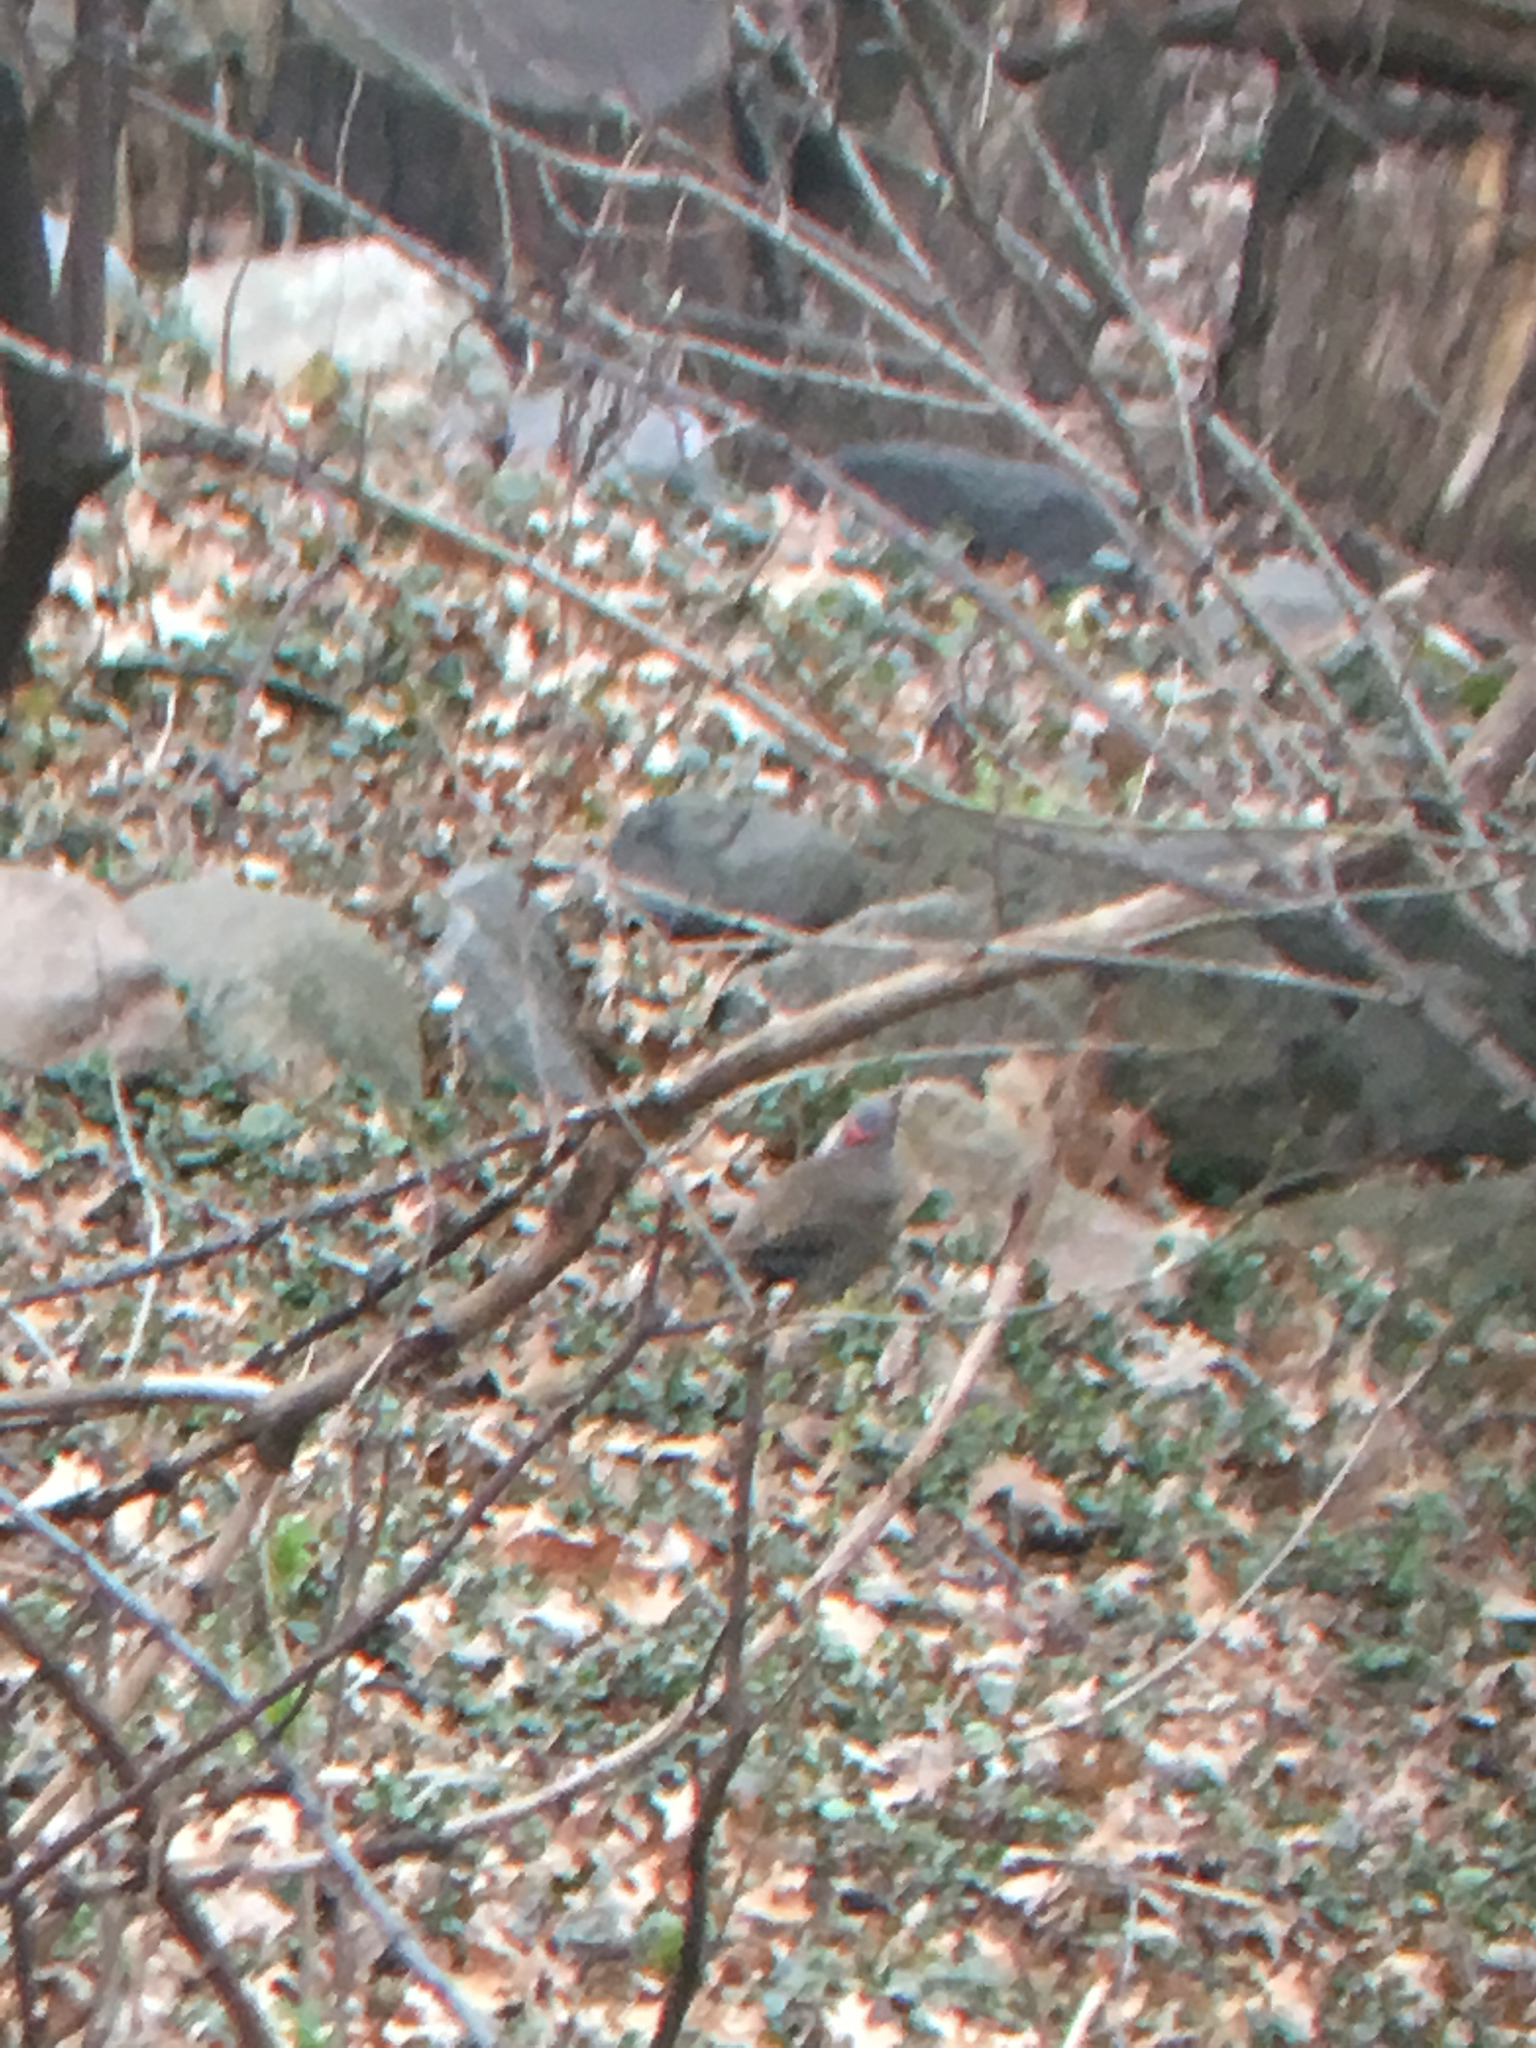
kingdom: Animalia
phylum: Chordata
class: Aves
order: Piciformes
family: Picidae
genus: Colaptes
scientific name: Colaptes auratus
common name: Northern flicker
